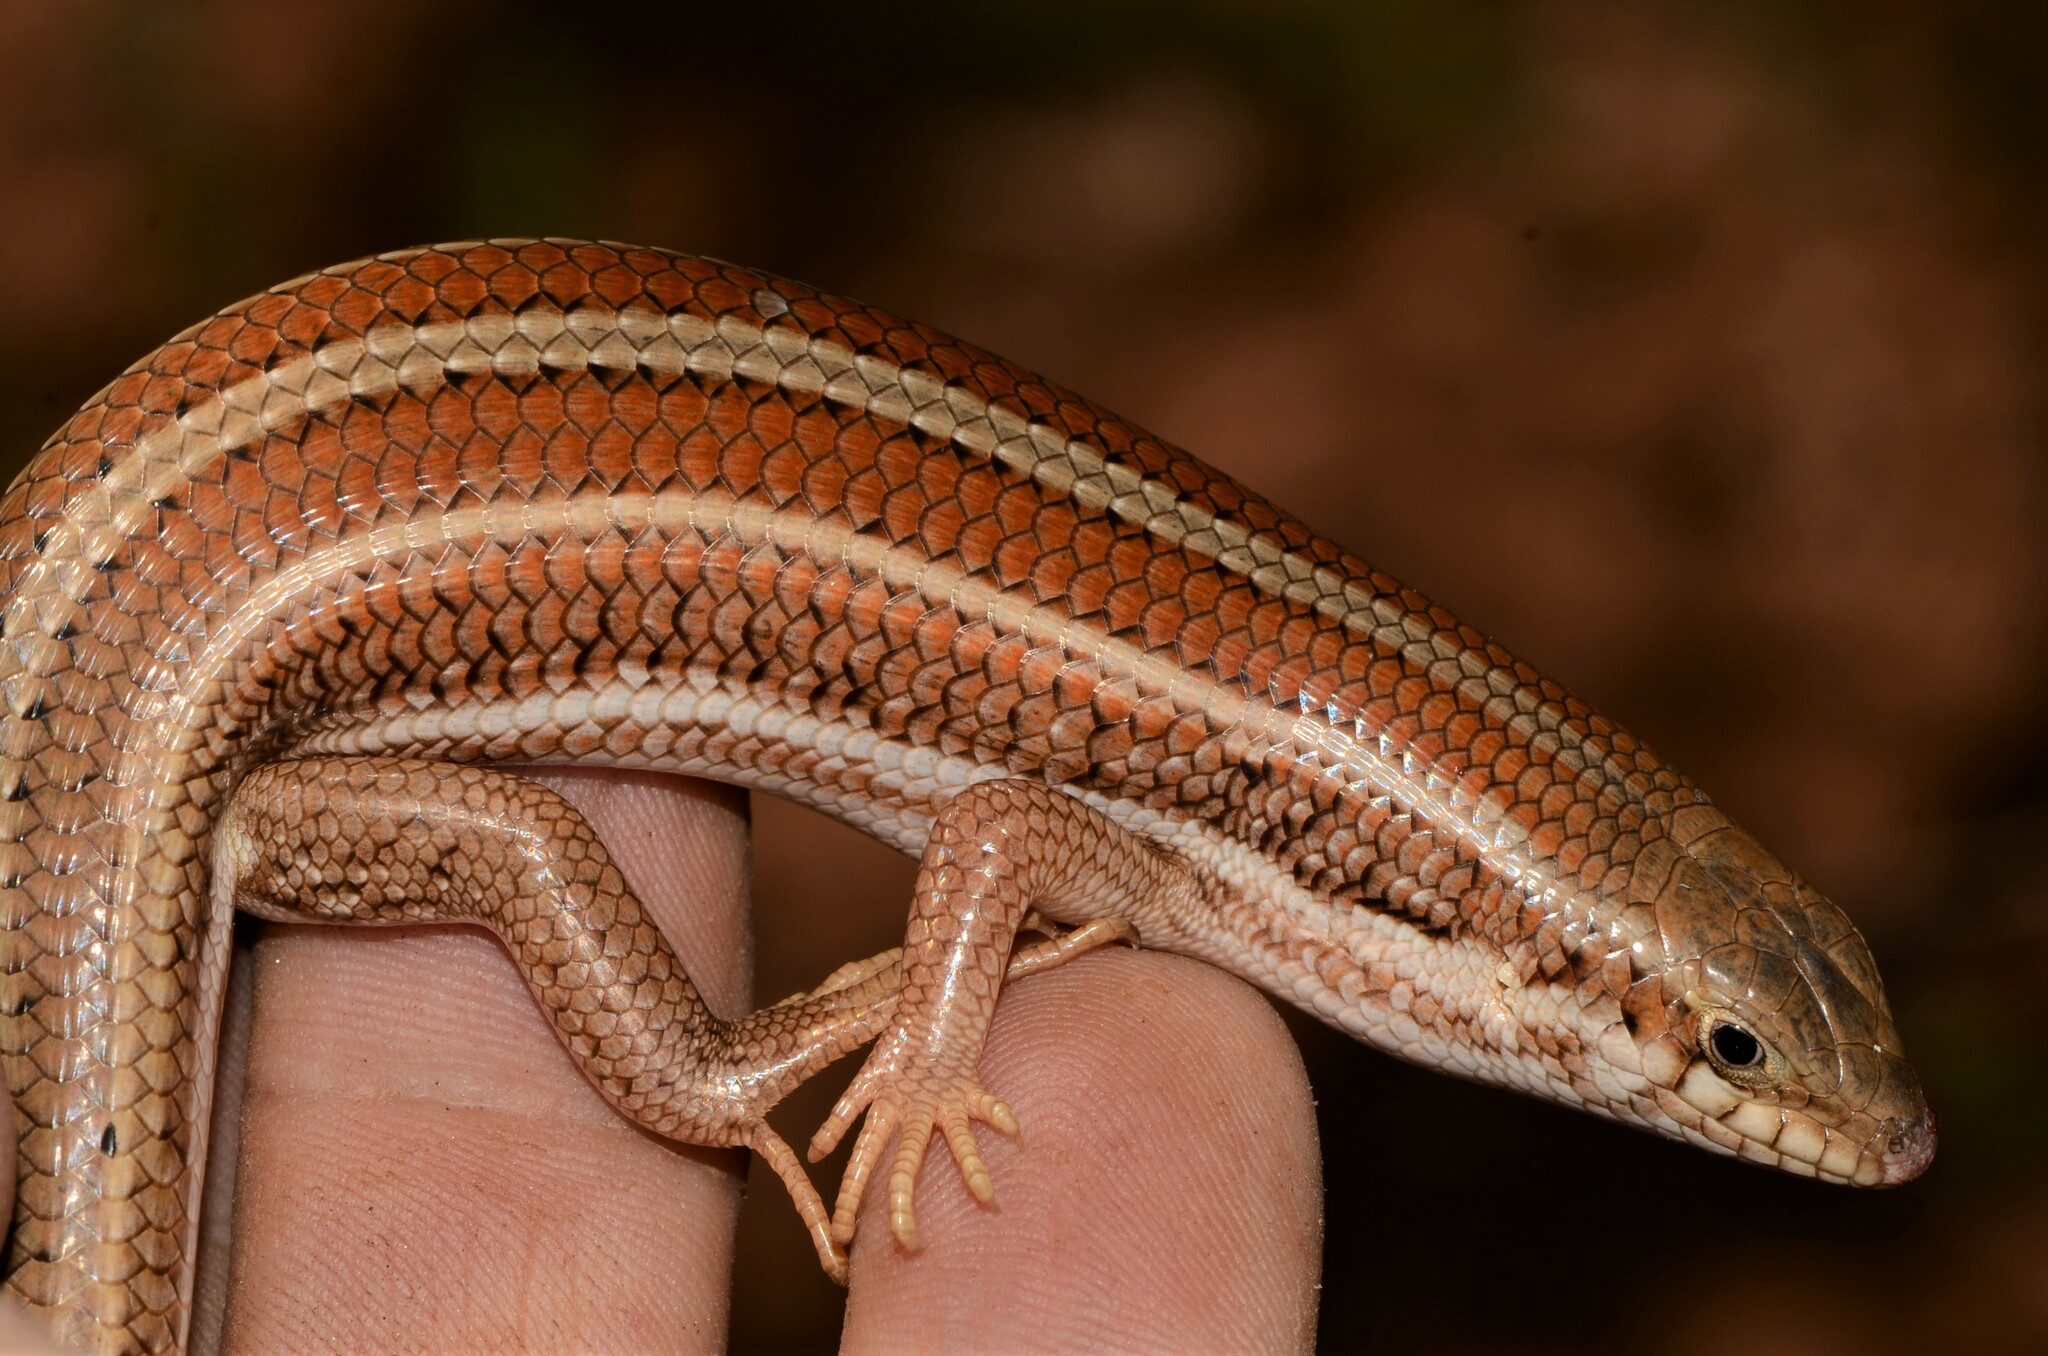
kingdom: Animalia
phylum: Chordata
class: Squamata
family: Scincidae
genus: Trachylepis
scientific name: Trachylepis occidentalis
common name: Western three-striped skink
